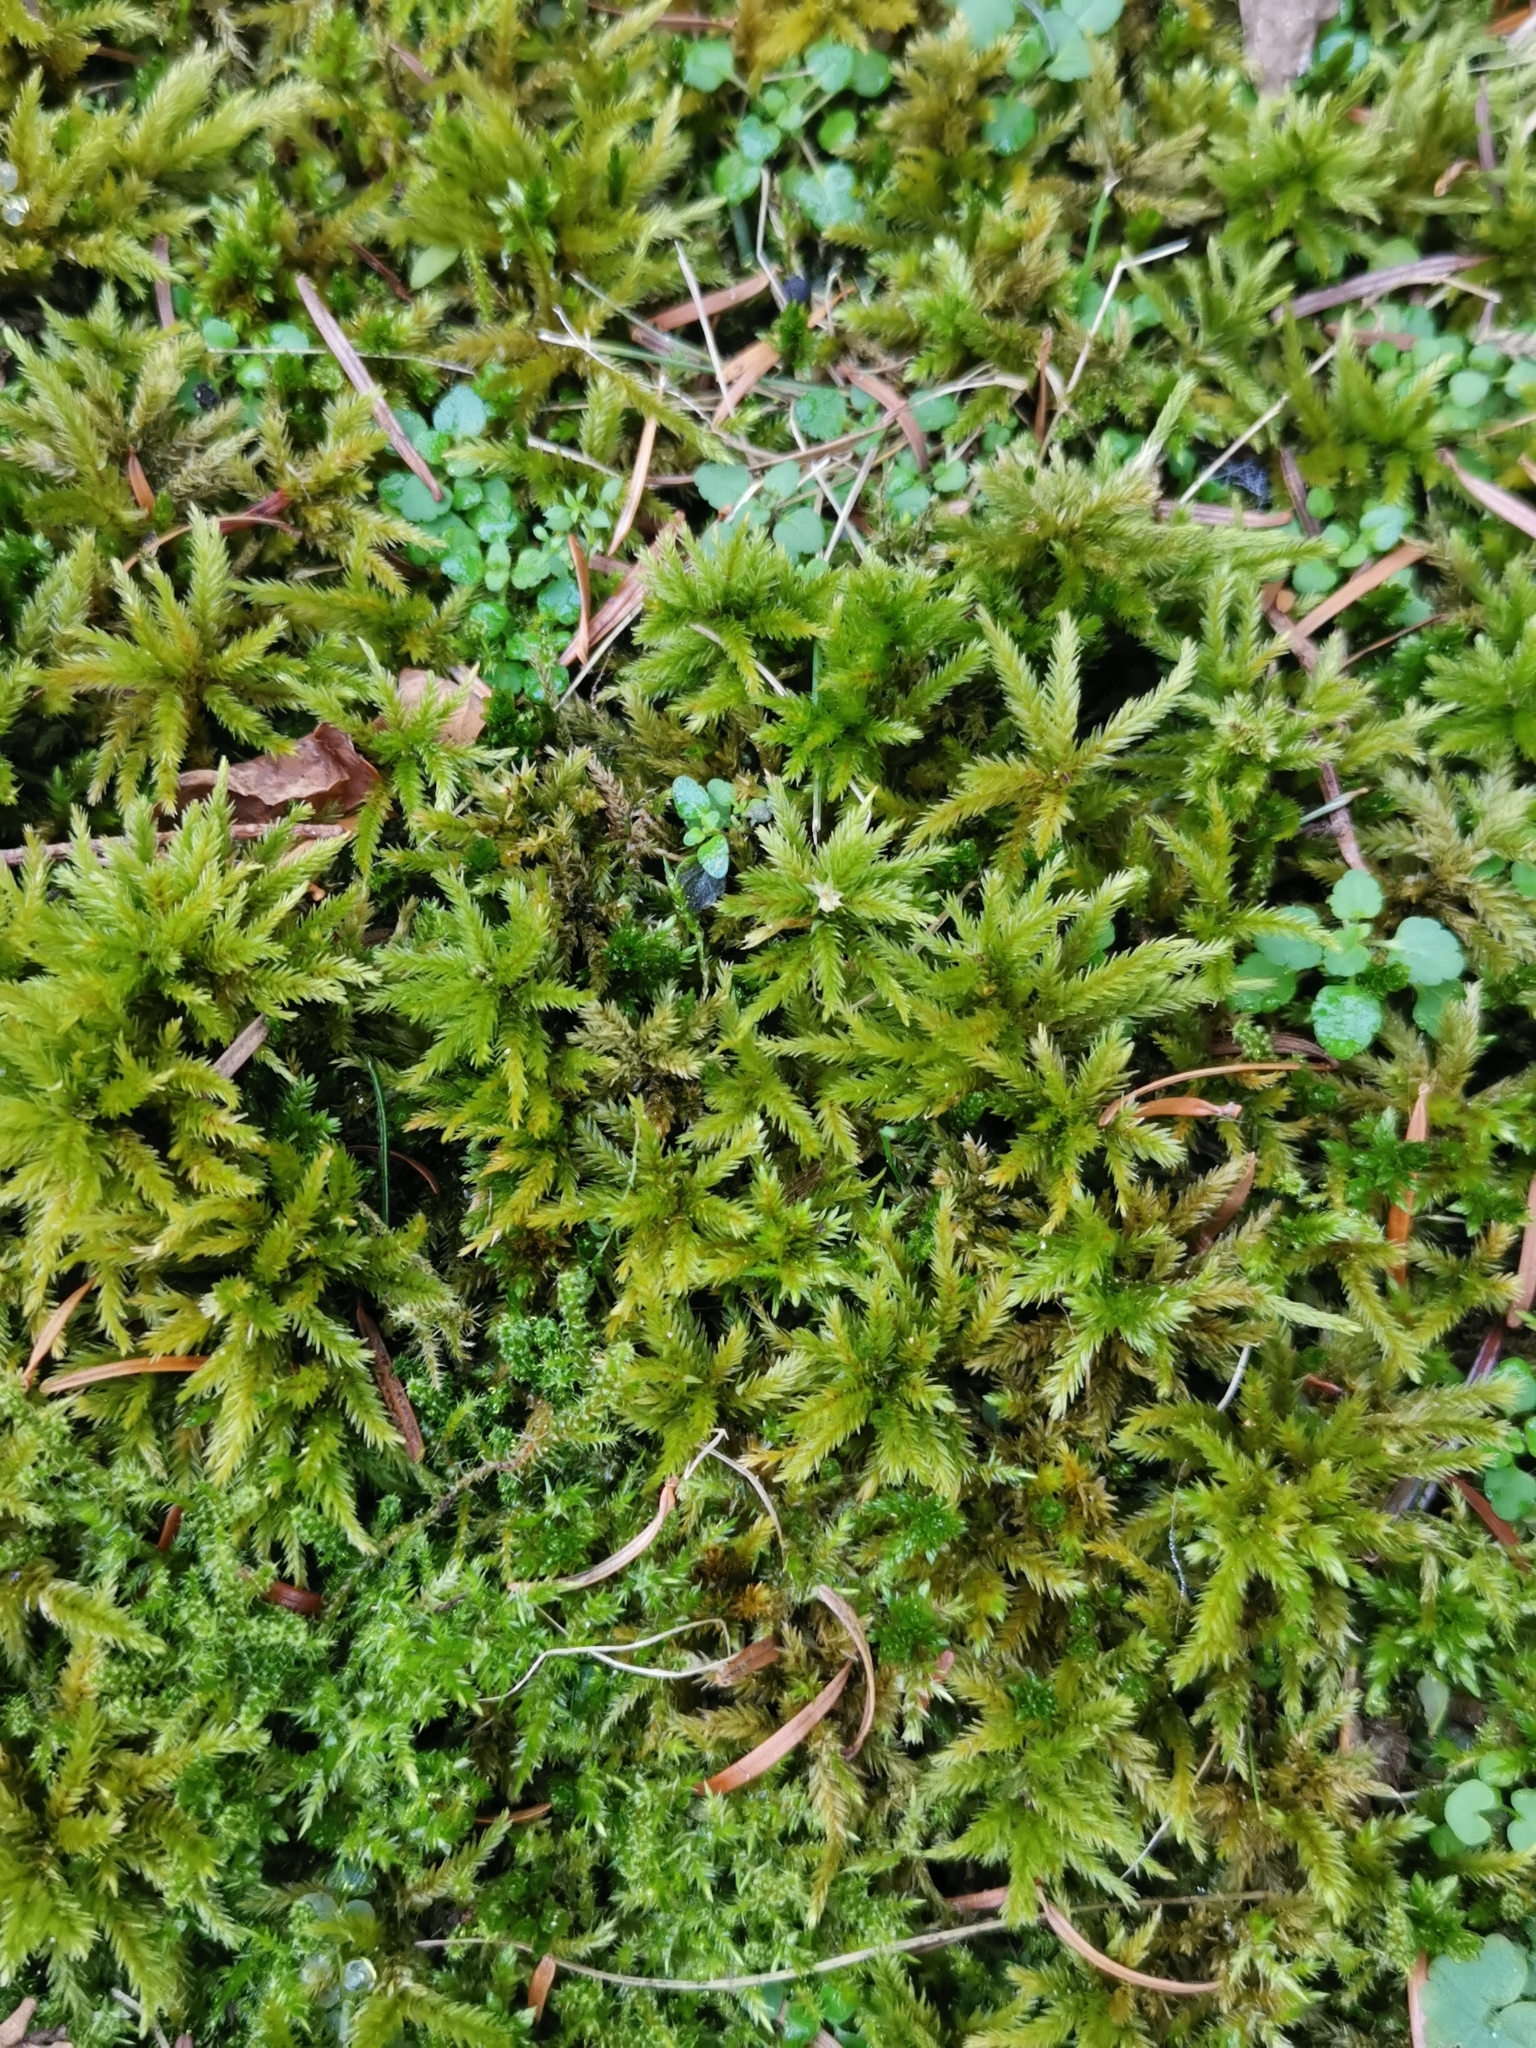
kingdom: Plantae
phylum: Bryophyta
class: Bryopsida
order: Hypnales
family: Climaciaceae
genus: Climacium
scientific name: Climacium dendroides
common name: Northern tree moss
